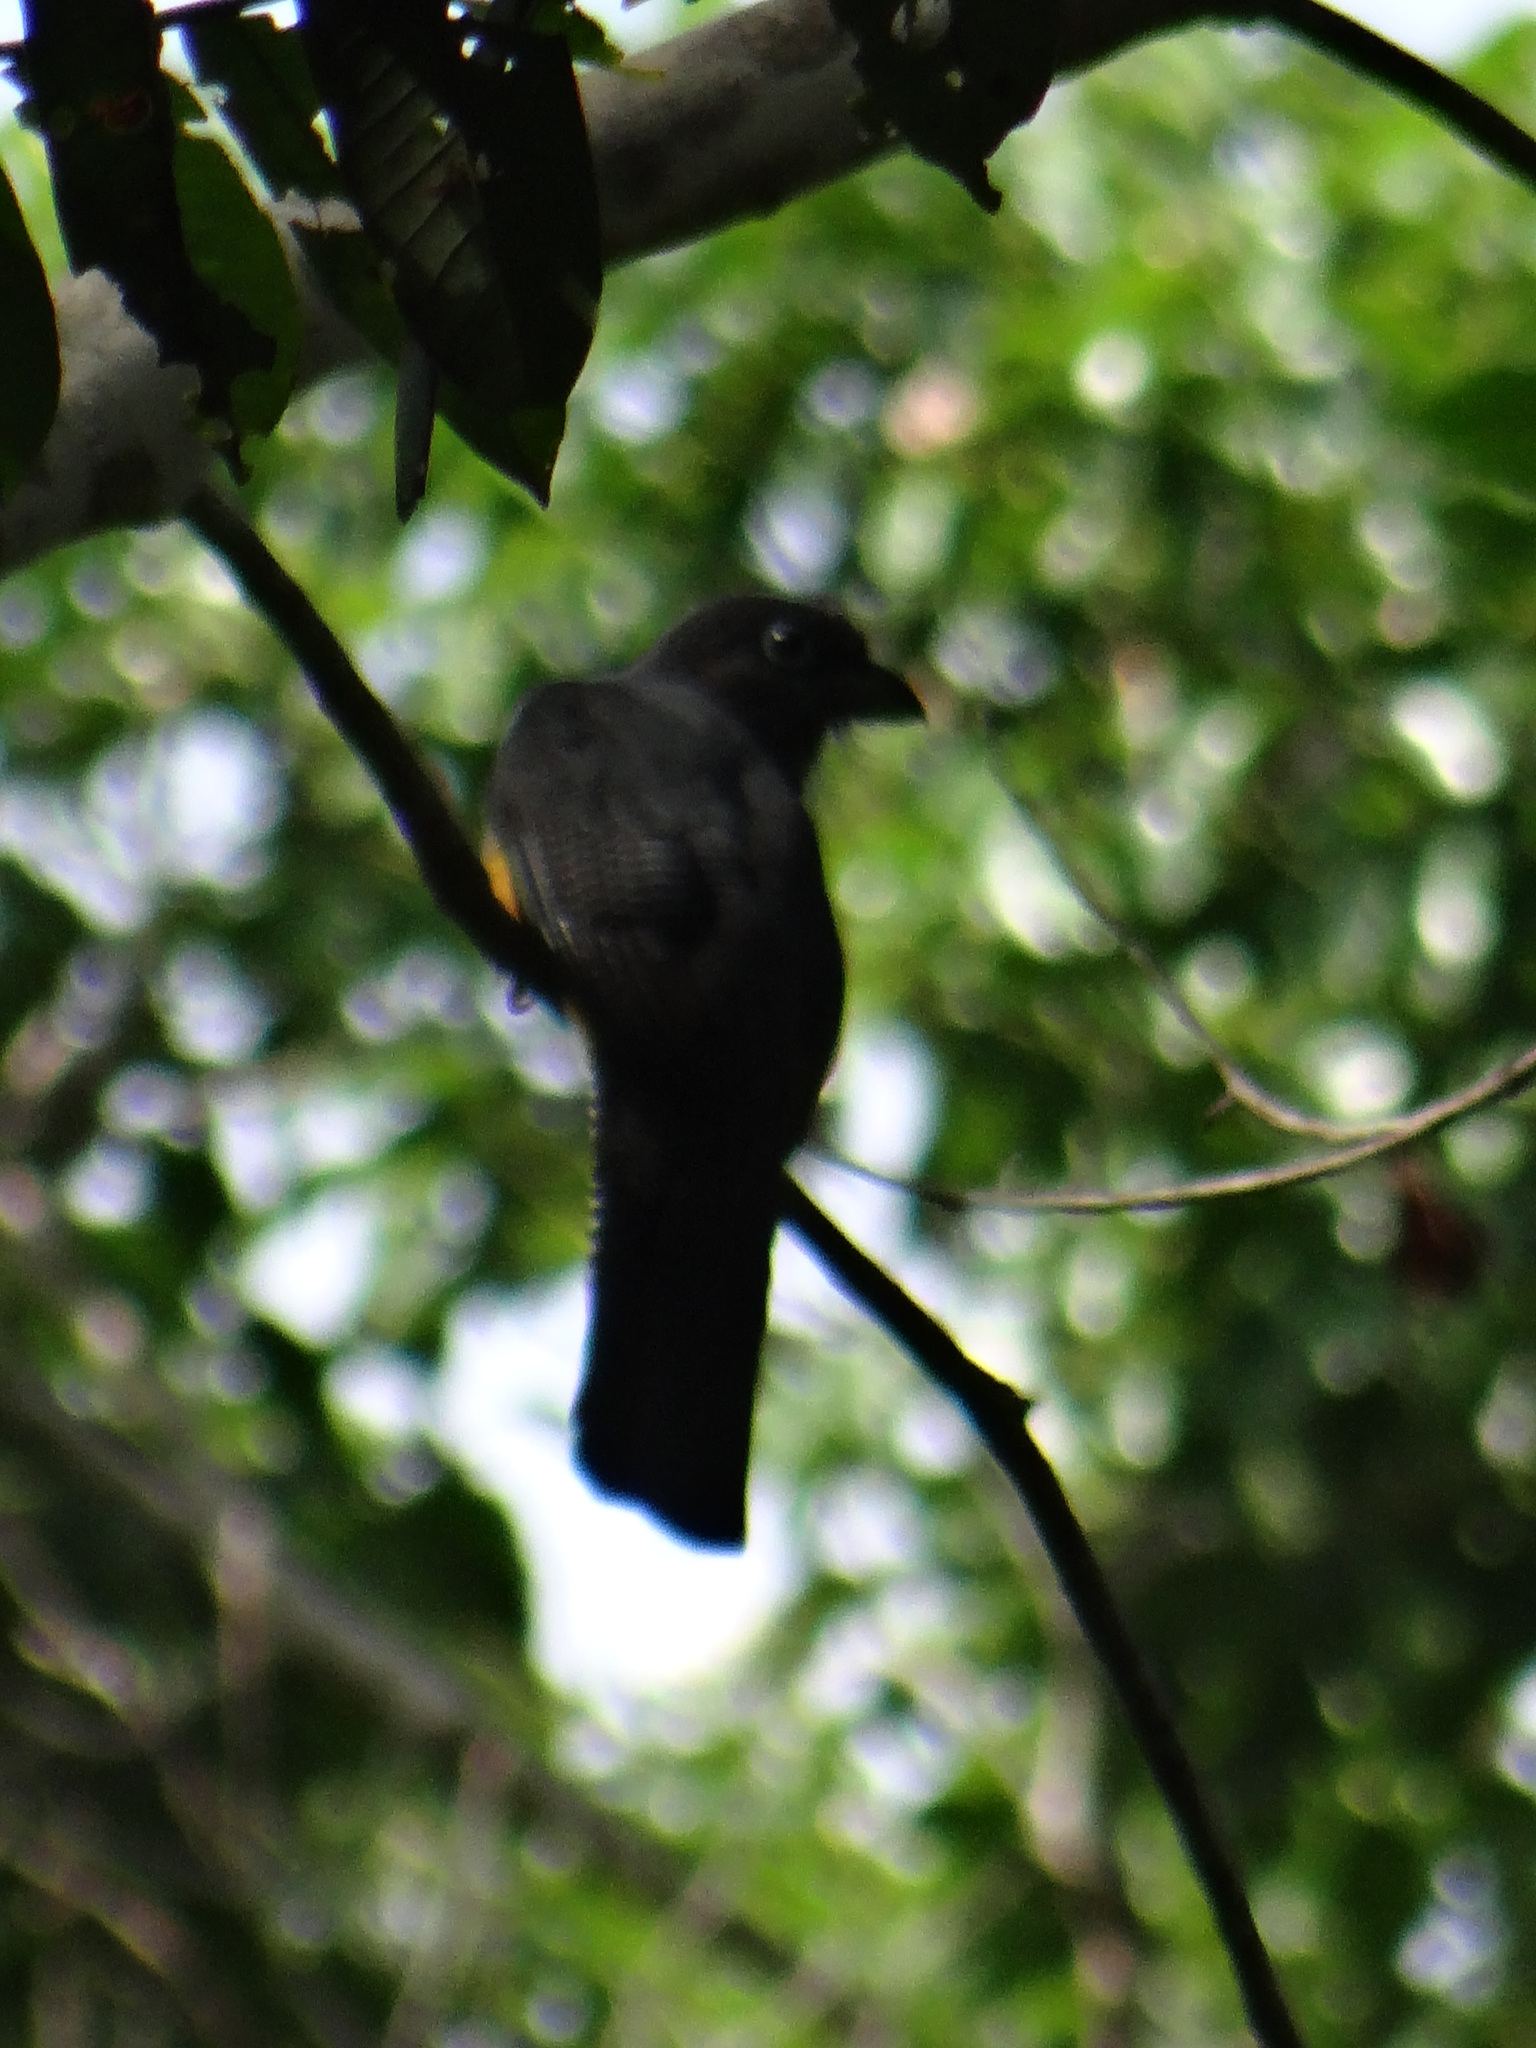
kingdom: Animalia
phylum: Chordata
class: Aves
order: Trogoniformes
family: Trogonidae
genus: Trogon
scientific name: Trogon viridis
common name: Green-backed trogon
